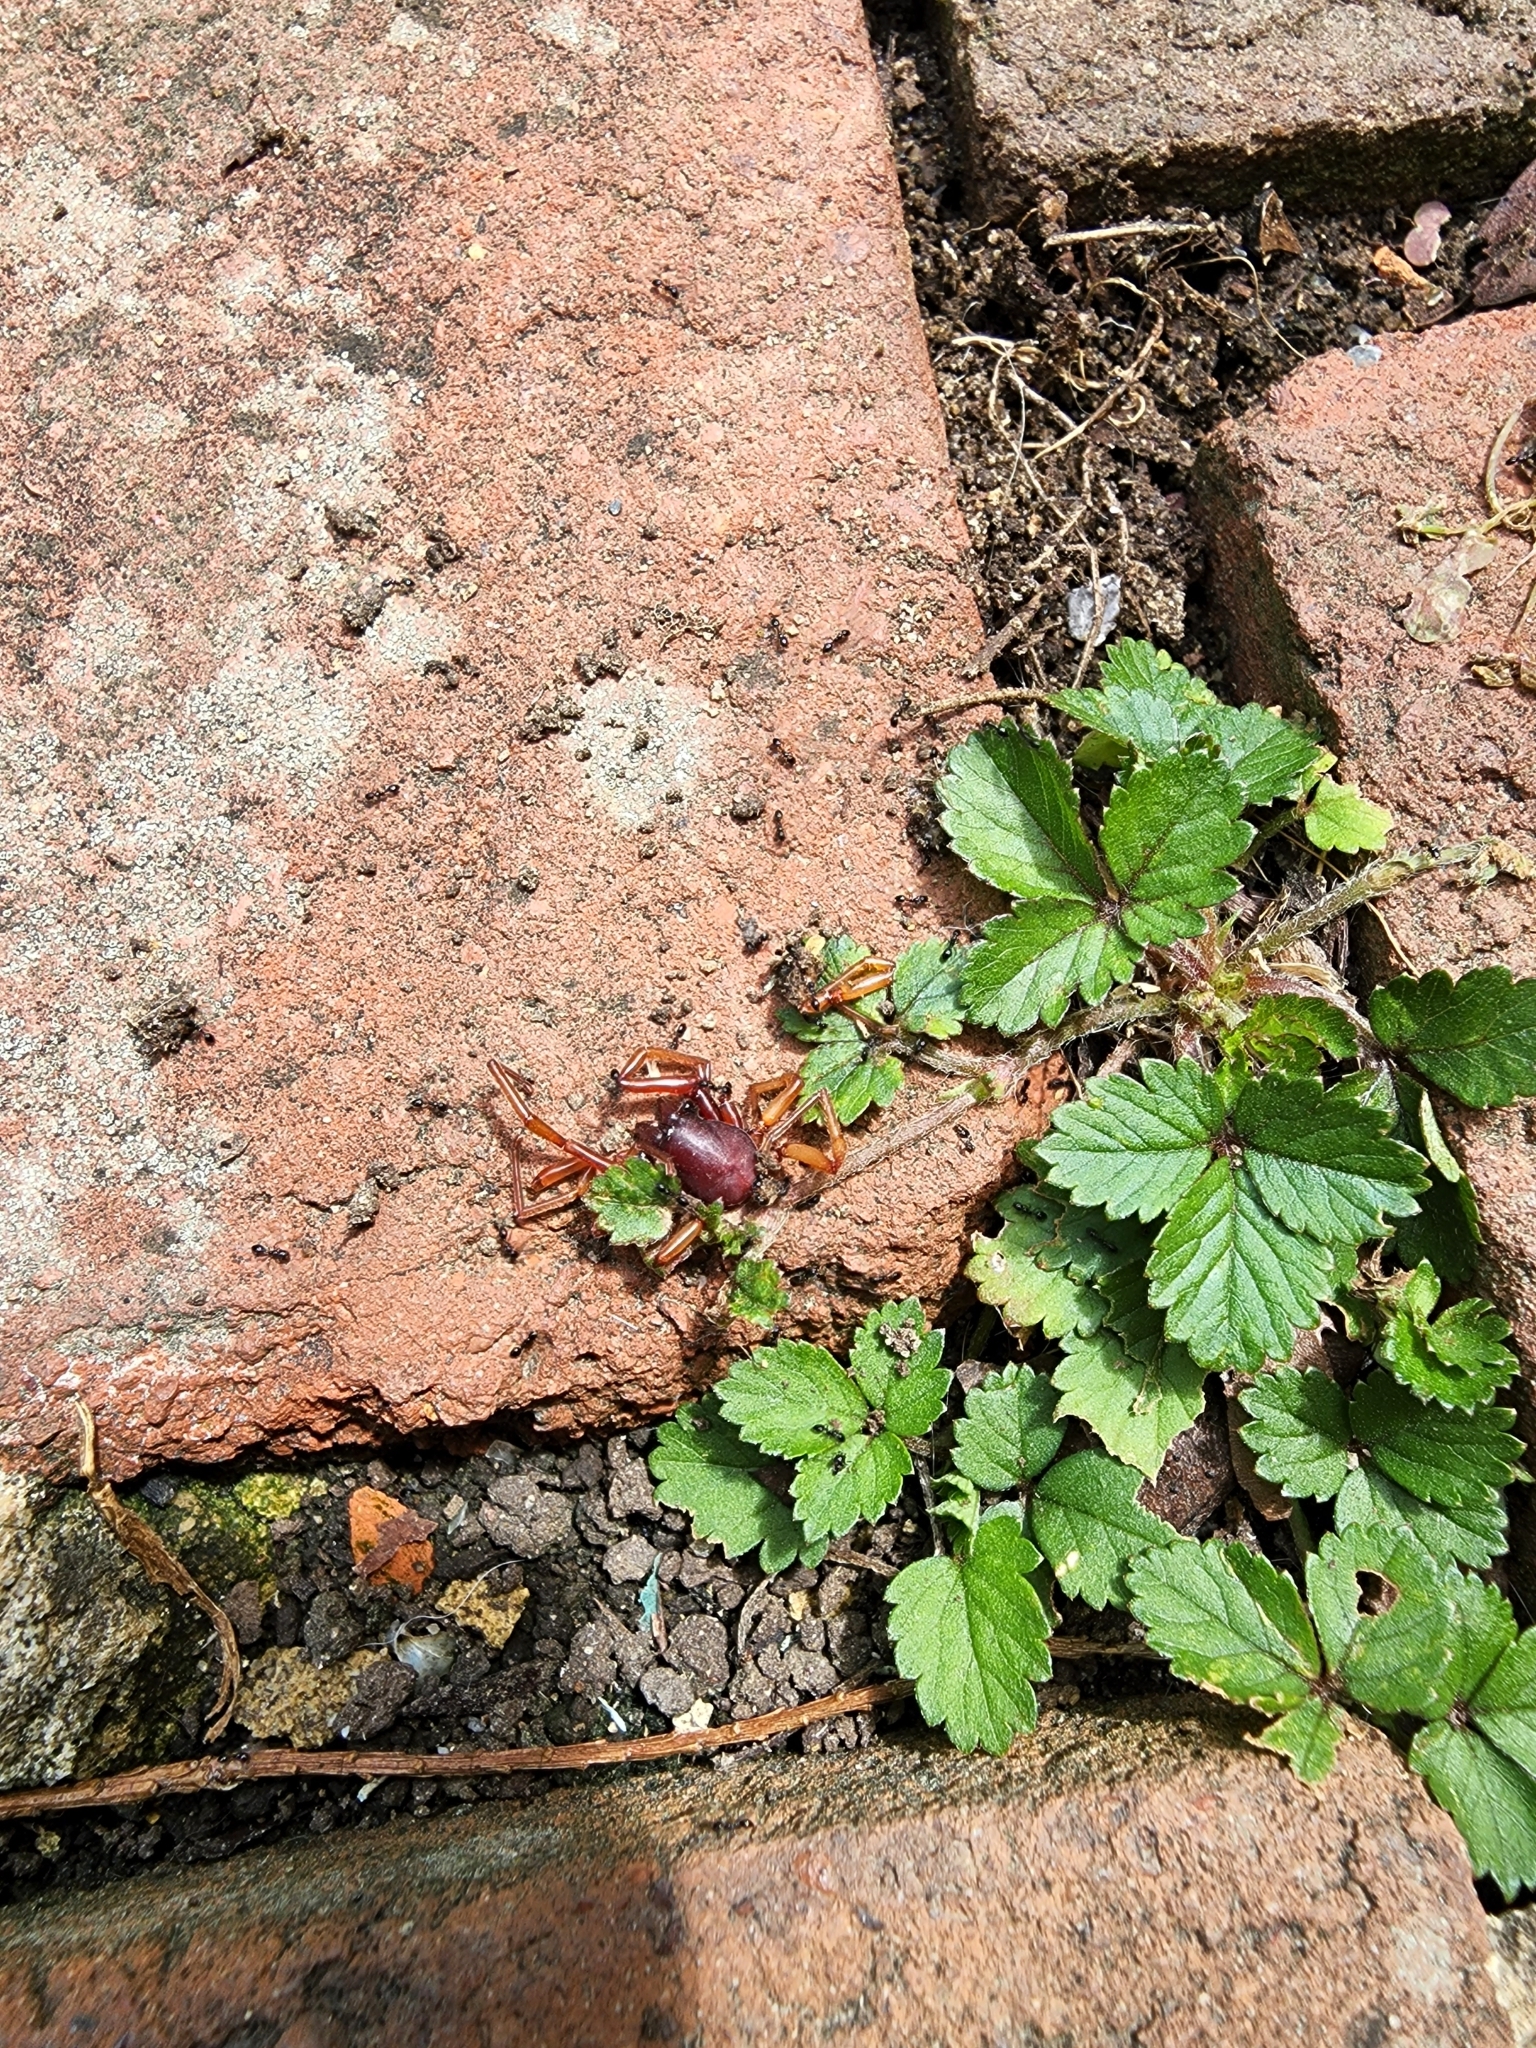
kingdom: Animalia
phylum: Arthropoda
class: Arachnida
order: Araneae
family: Dysderidae
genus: Dysdera
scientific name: Dysdera crocata
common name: Woodlouse spider
